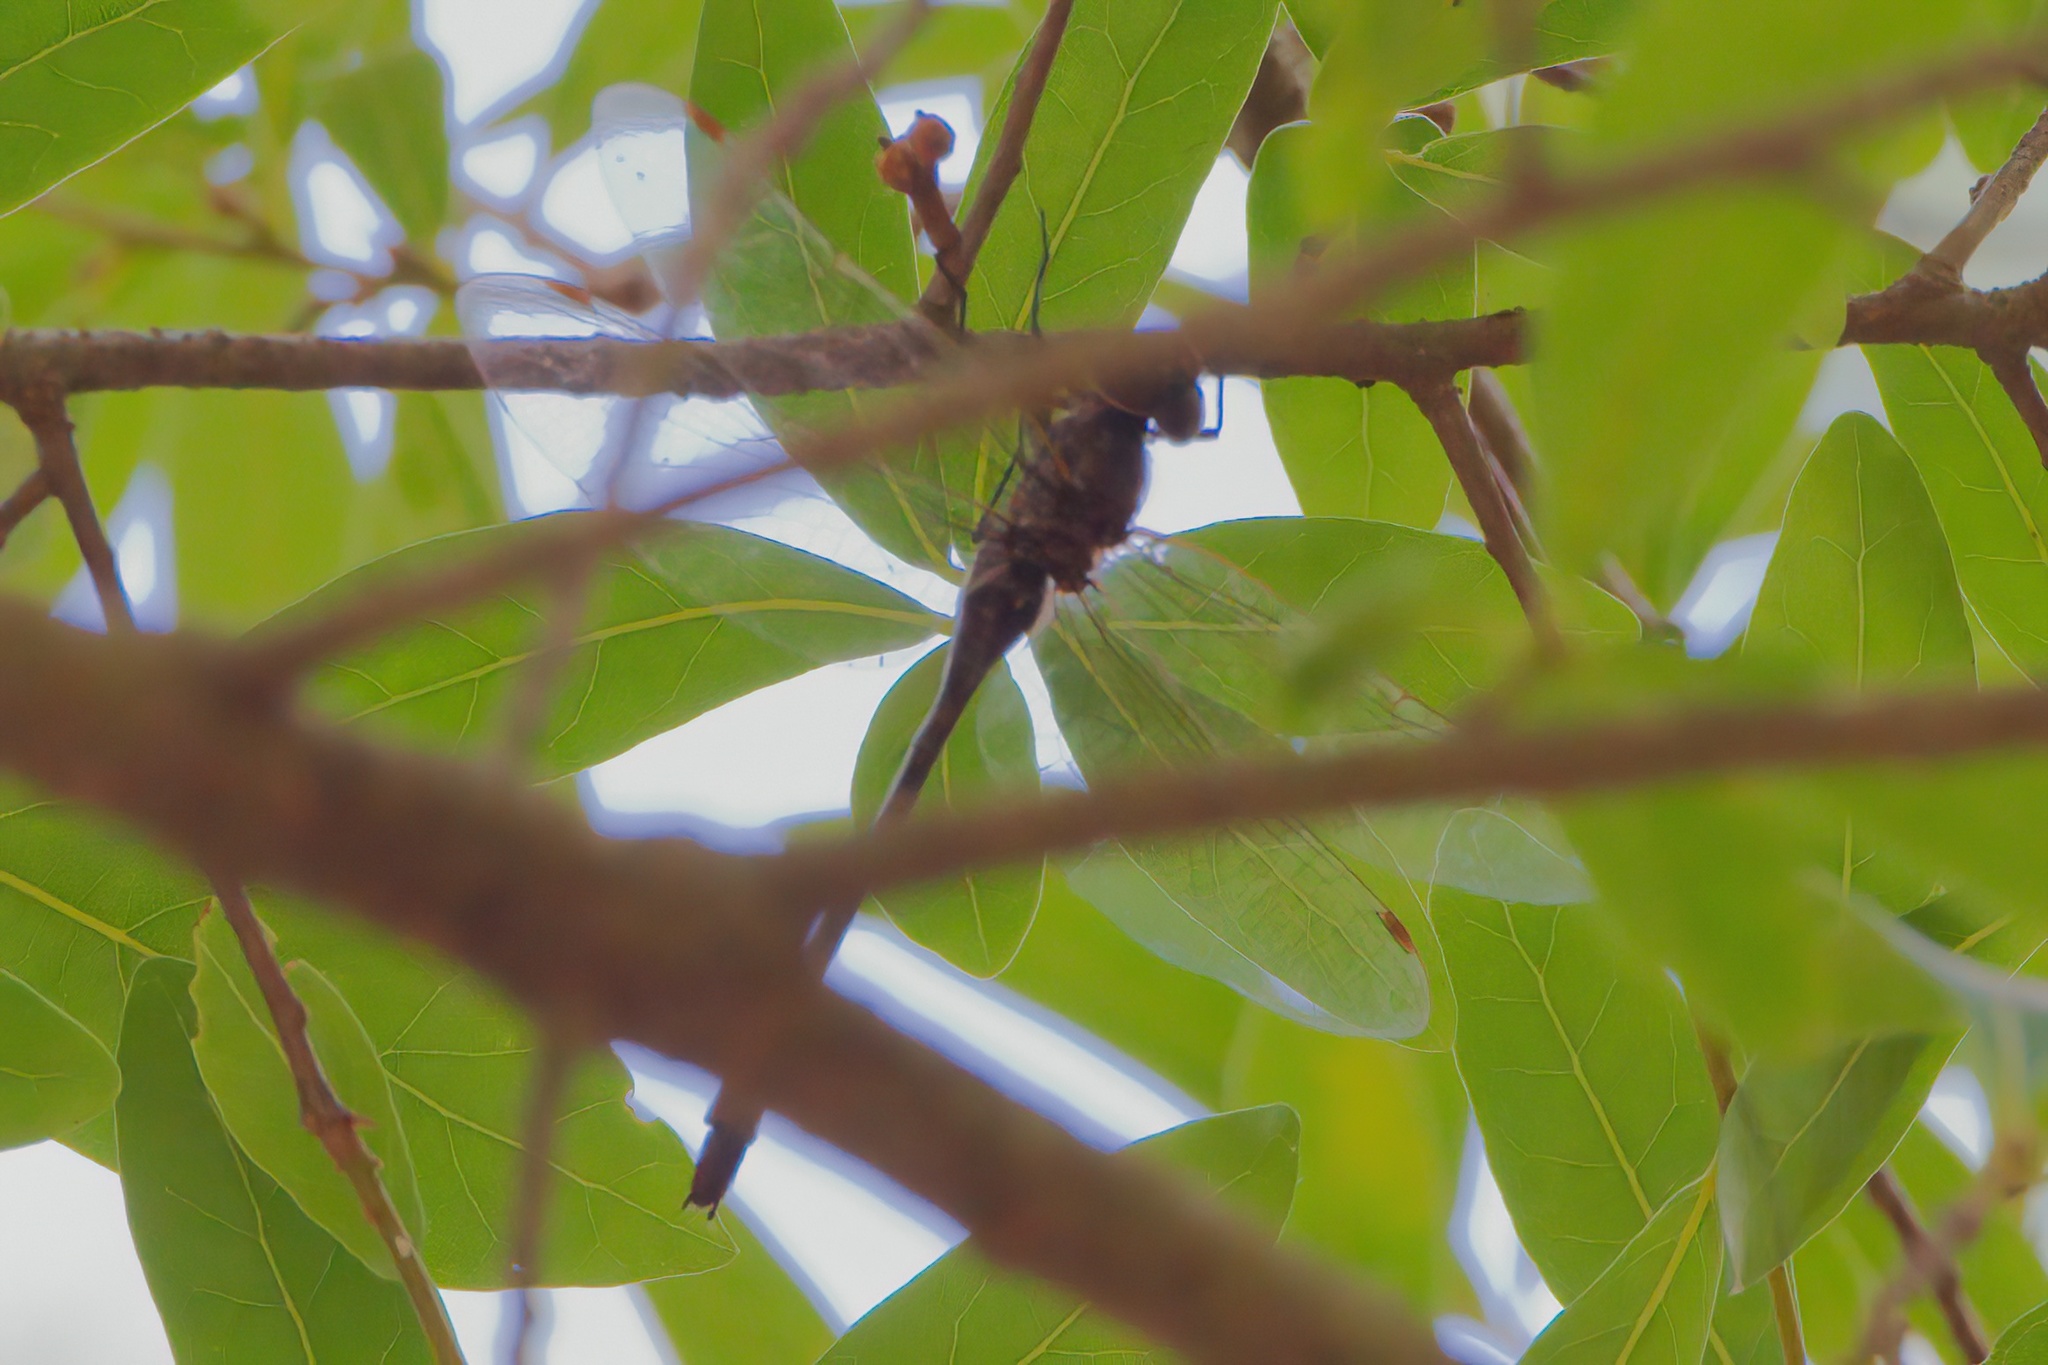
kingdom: Animalia
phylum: Arthropoda
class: Insecta
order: Odonata
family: Aeshnidae
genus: Gomphaeschna
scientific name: Gomphaeschna antilope
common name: Taper-tailed darner
